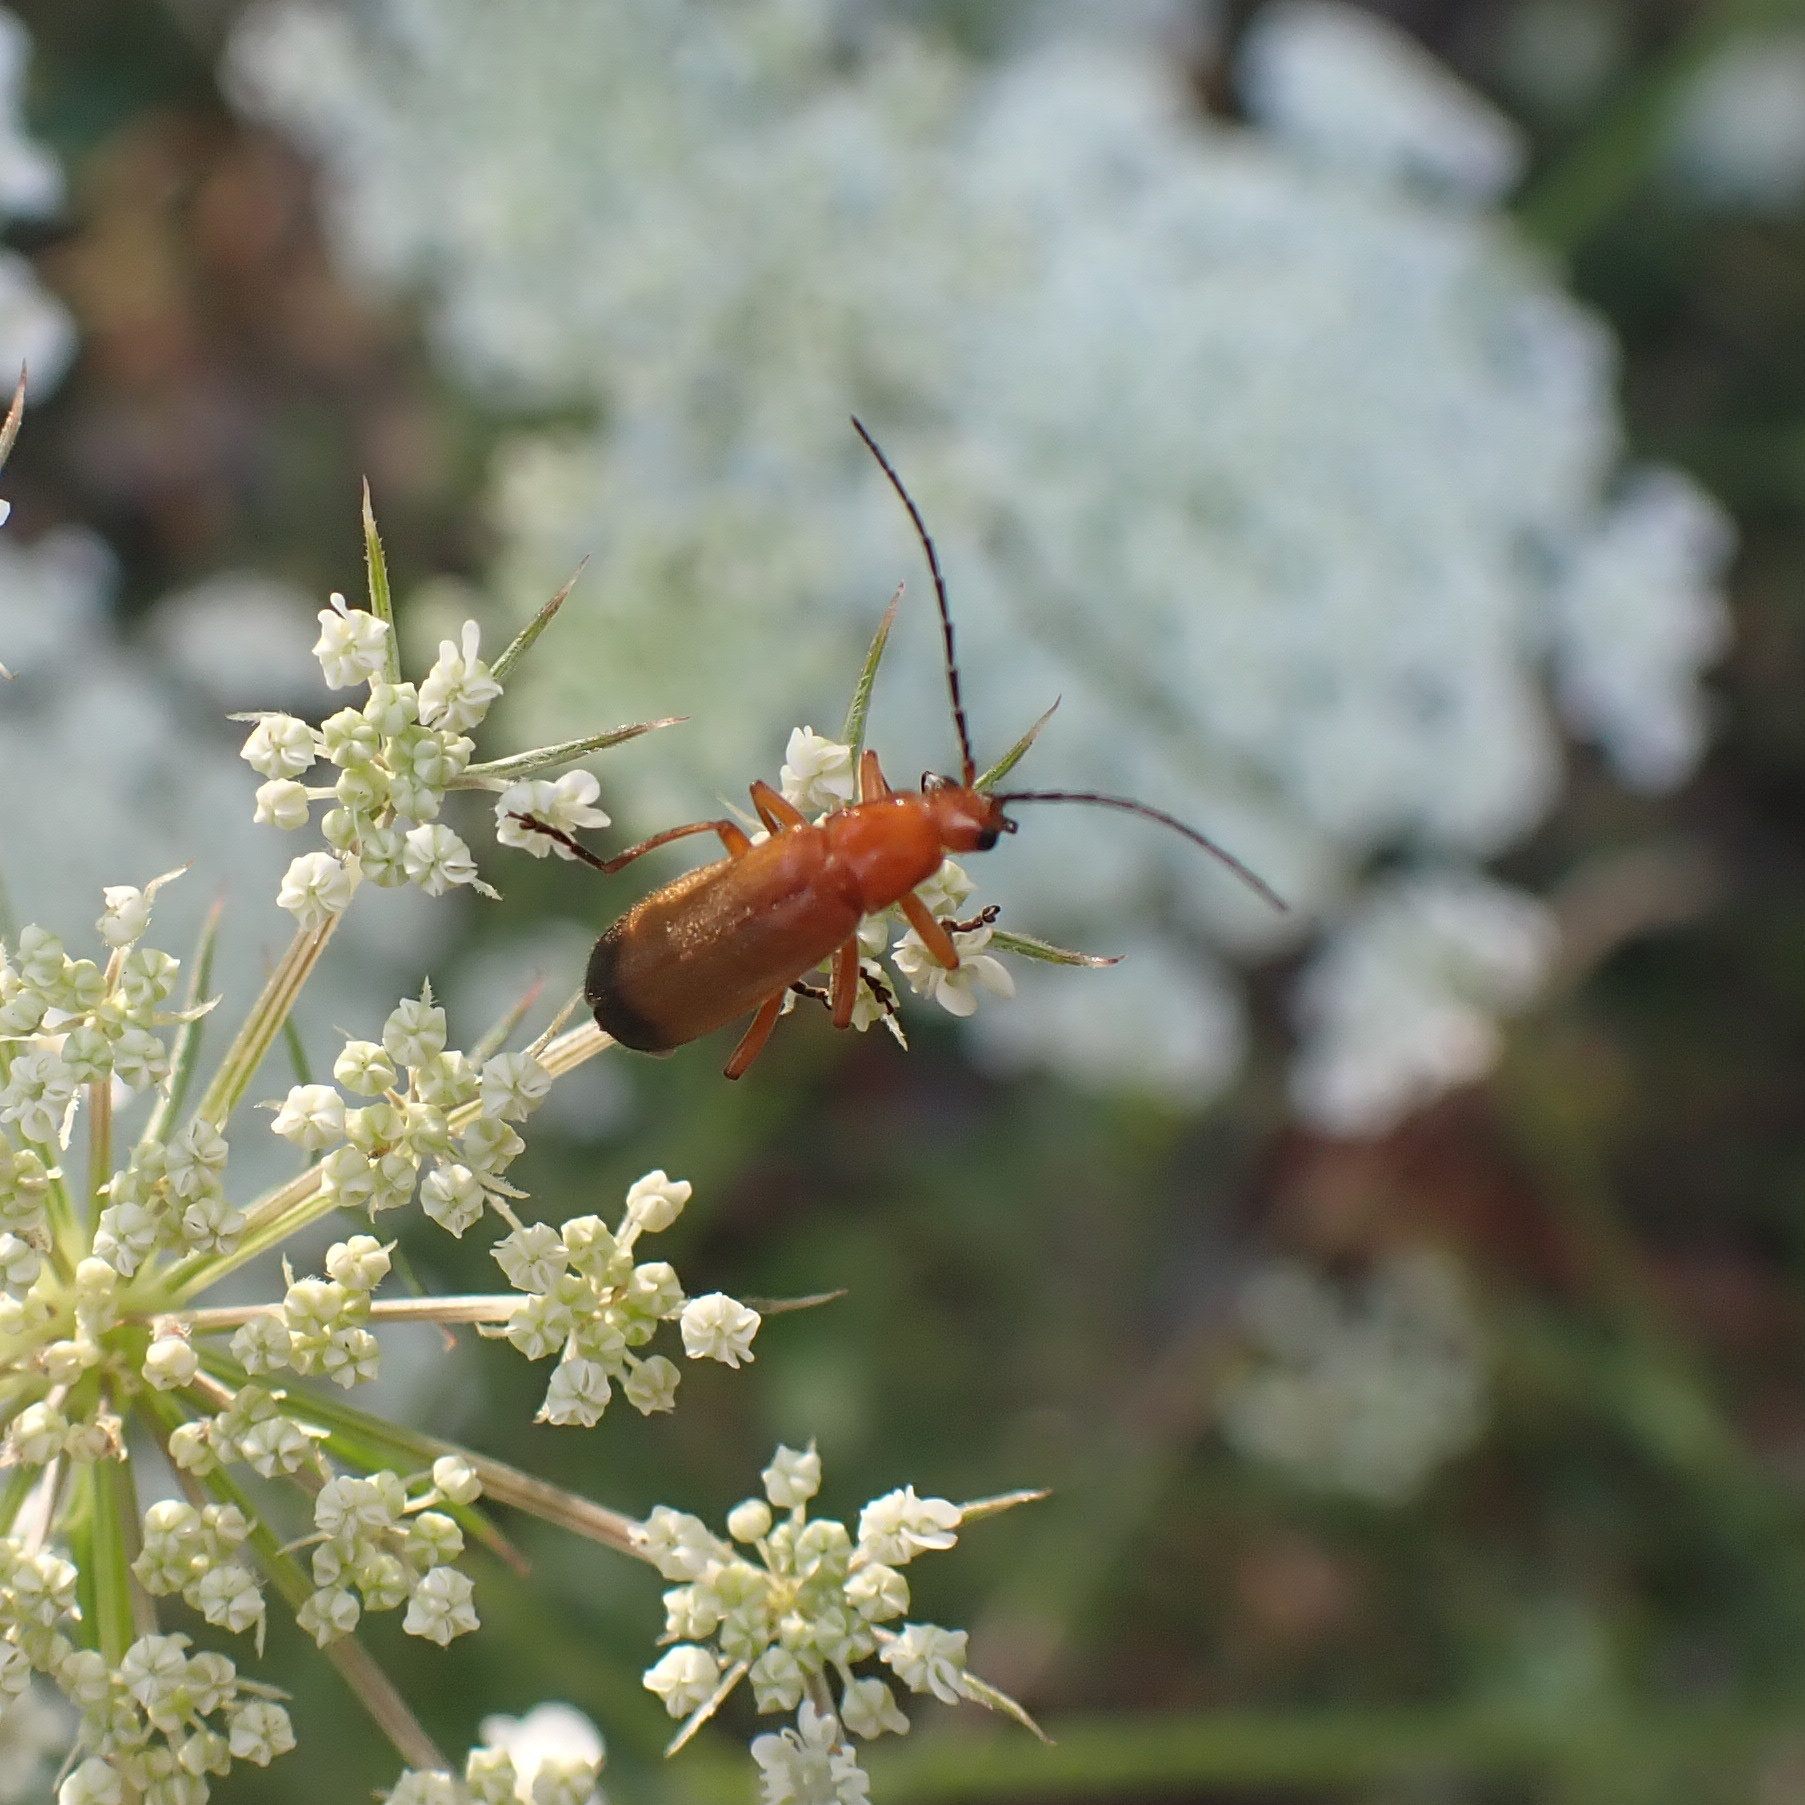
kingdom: Animalia
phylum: Arthropoda
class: Insecta
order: Coleoptera
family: Cantharidae
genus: Rhagonycha
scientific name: Rhagonycha fulva
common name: Common red soldier beetle
